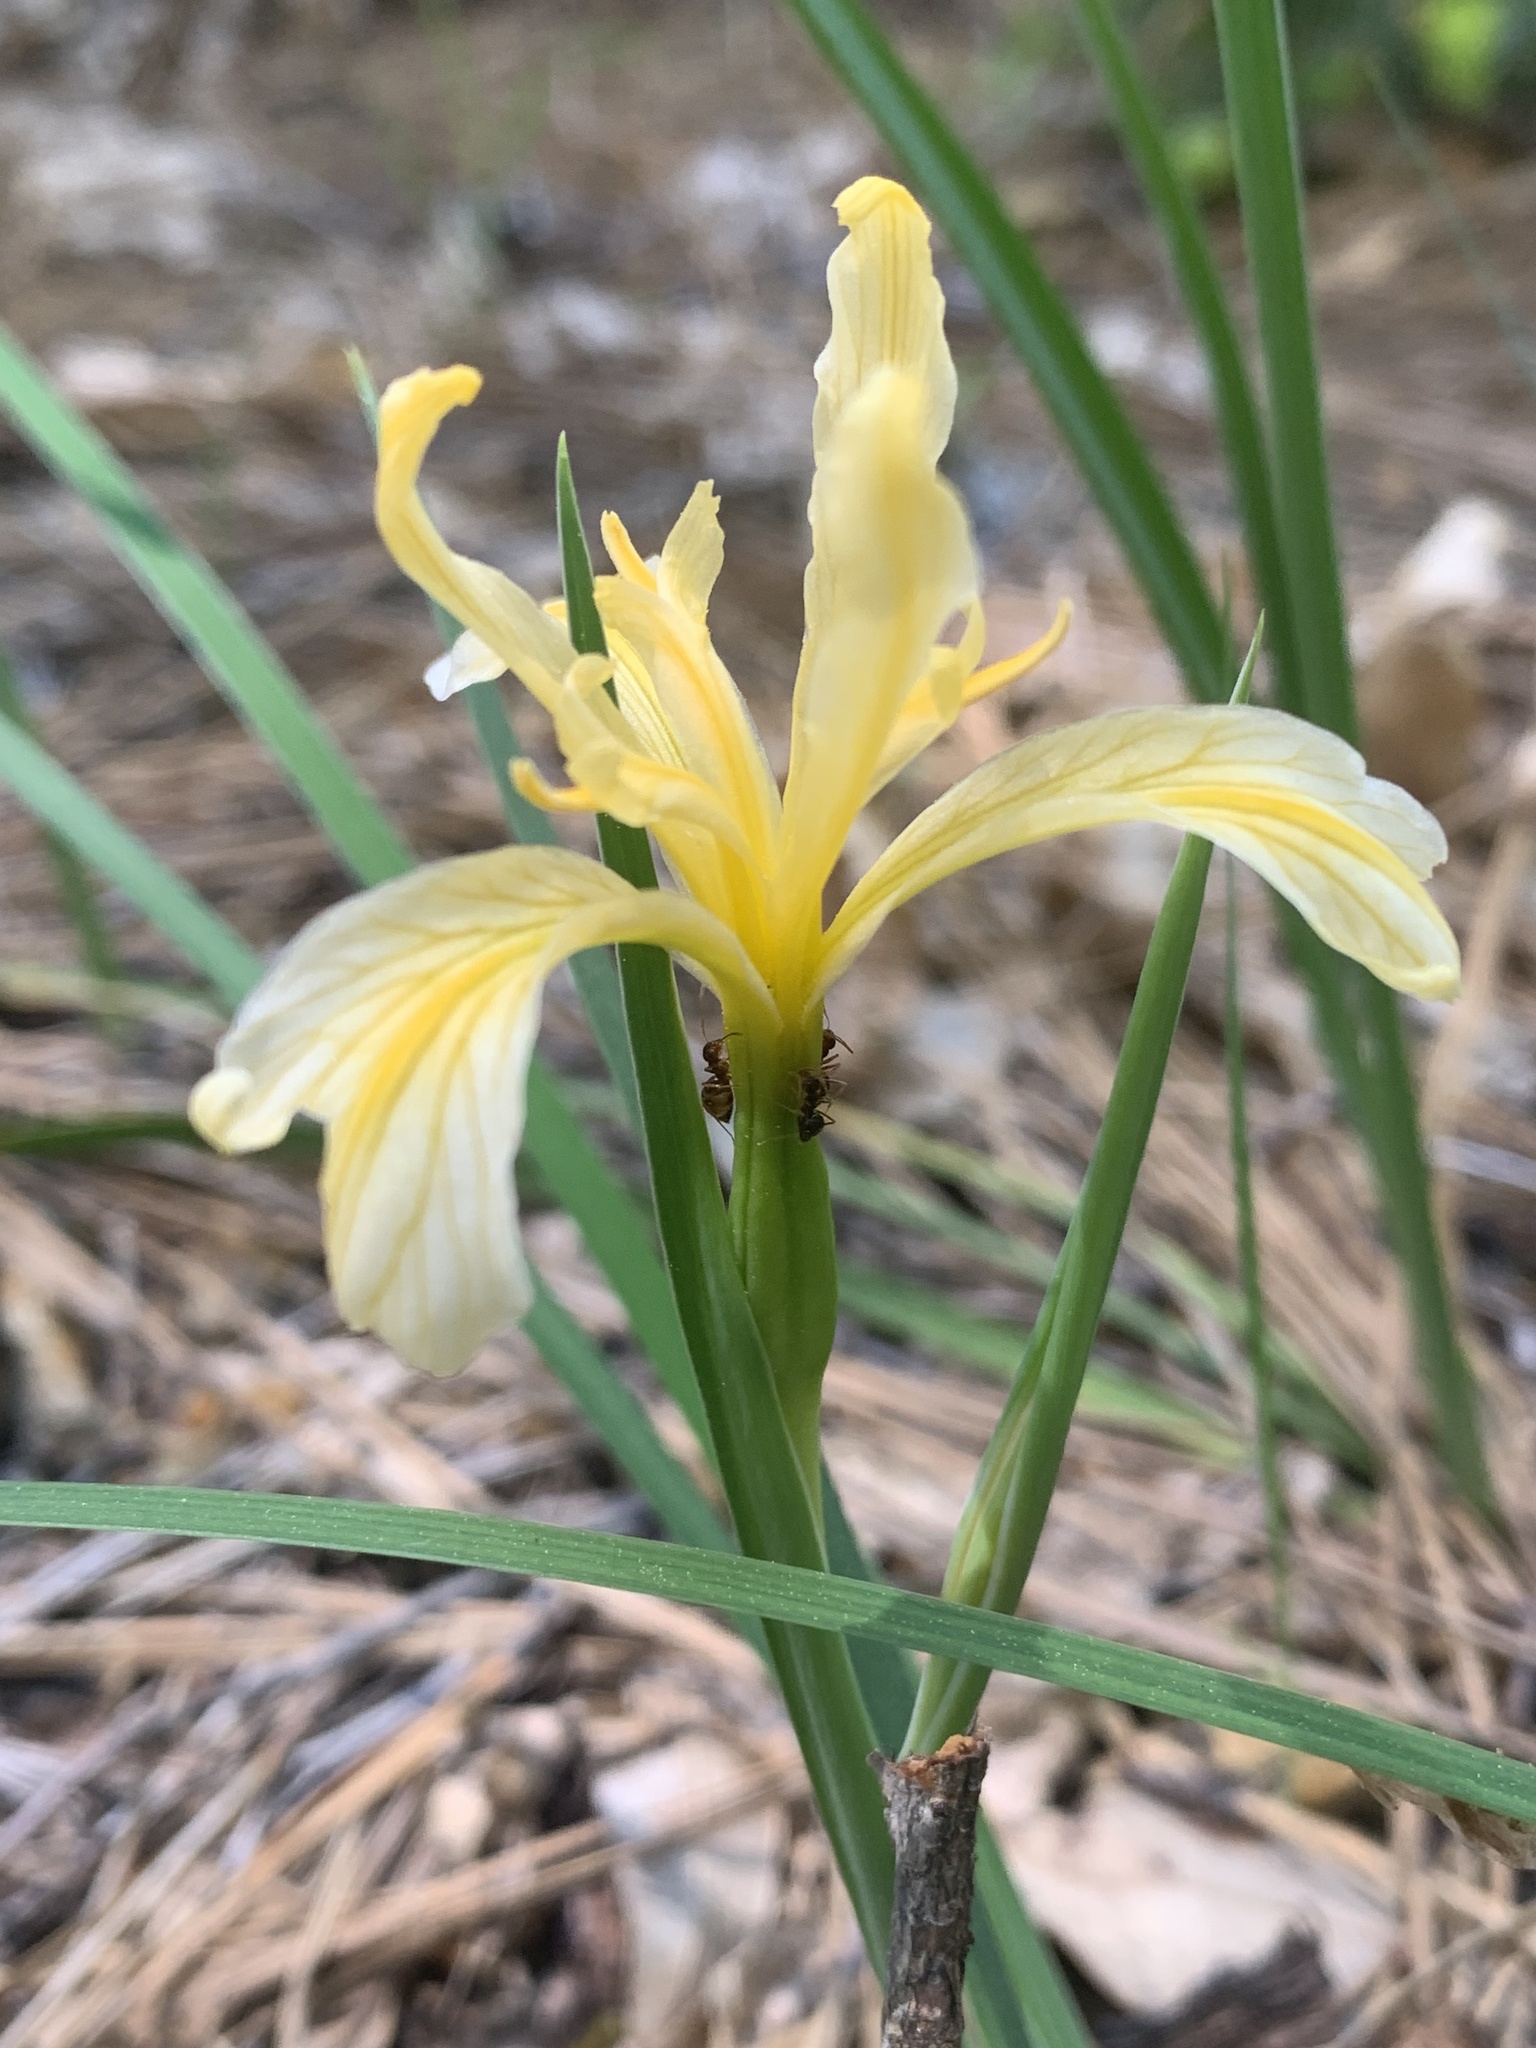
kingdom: Plantae
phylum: Tracheophyta
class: Liliopsida
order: Asparagales
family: Iridaceae
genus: Iris
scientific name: Iris hartwegii
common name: Sierra iris
